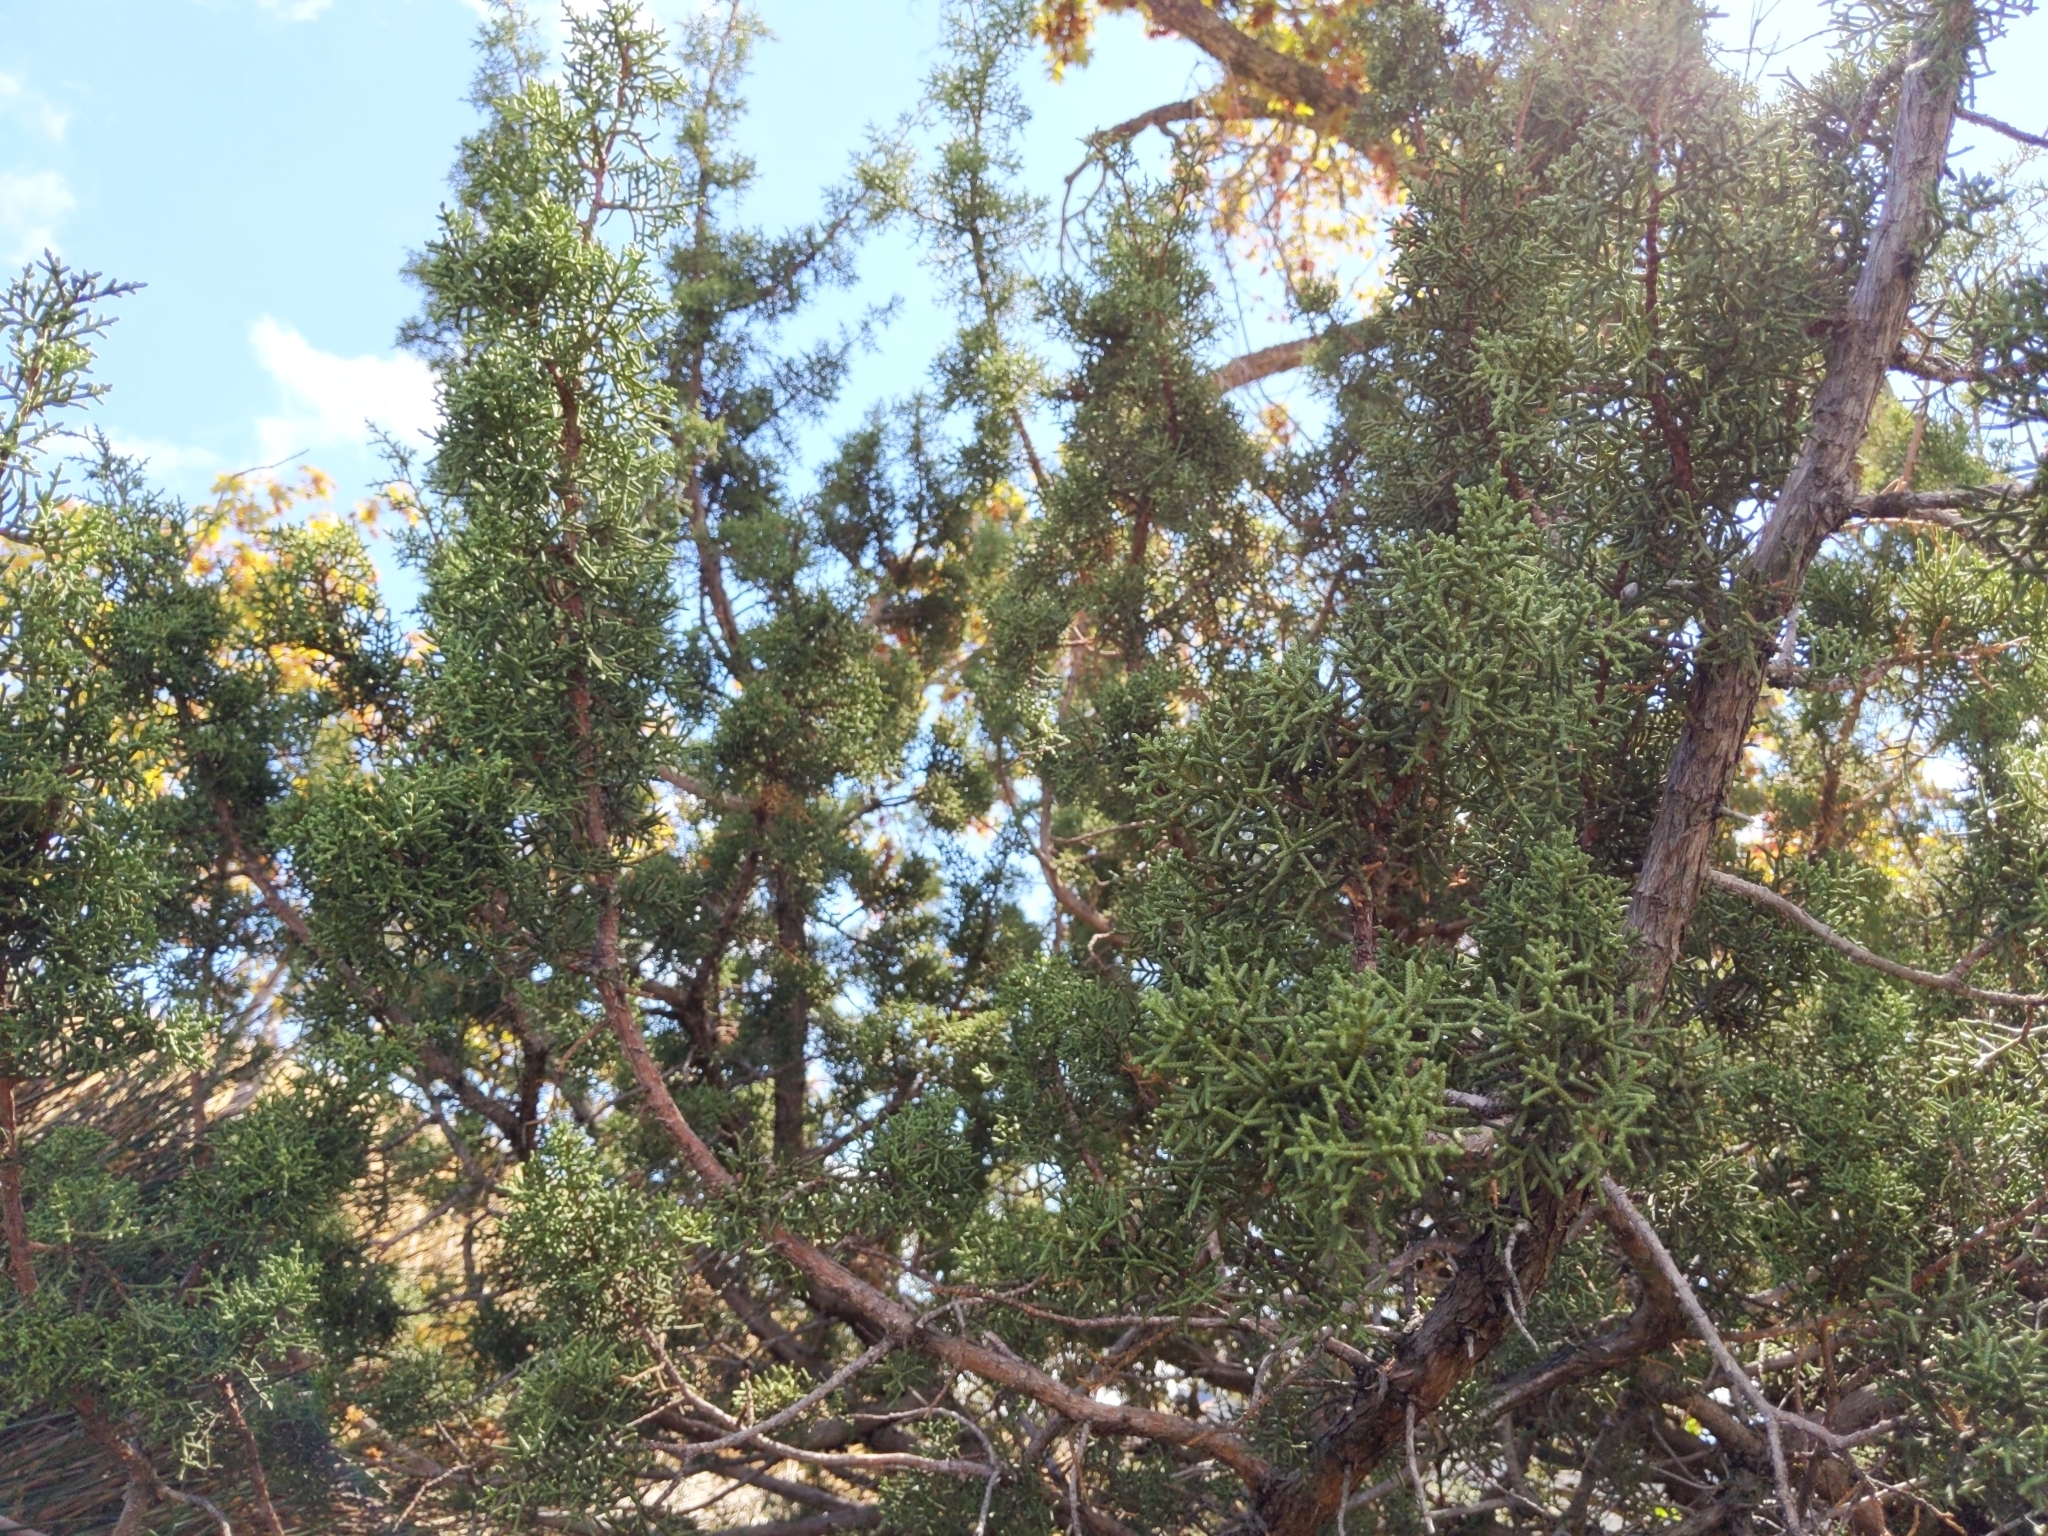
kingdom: Plantae
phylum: Tracheophyta
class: Pinopsida
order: Pinales
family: Cupressaceae
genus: Juniperus
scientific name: Juniperus californica
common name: California juniper
